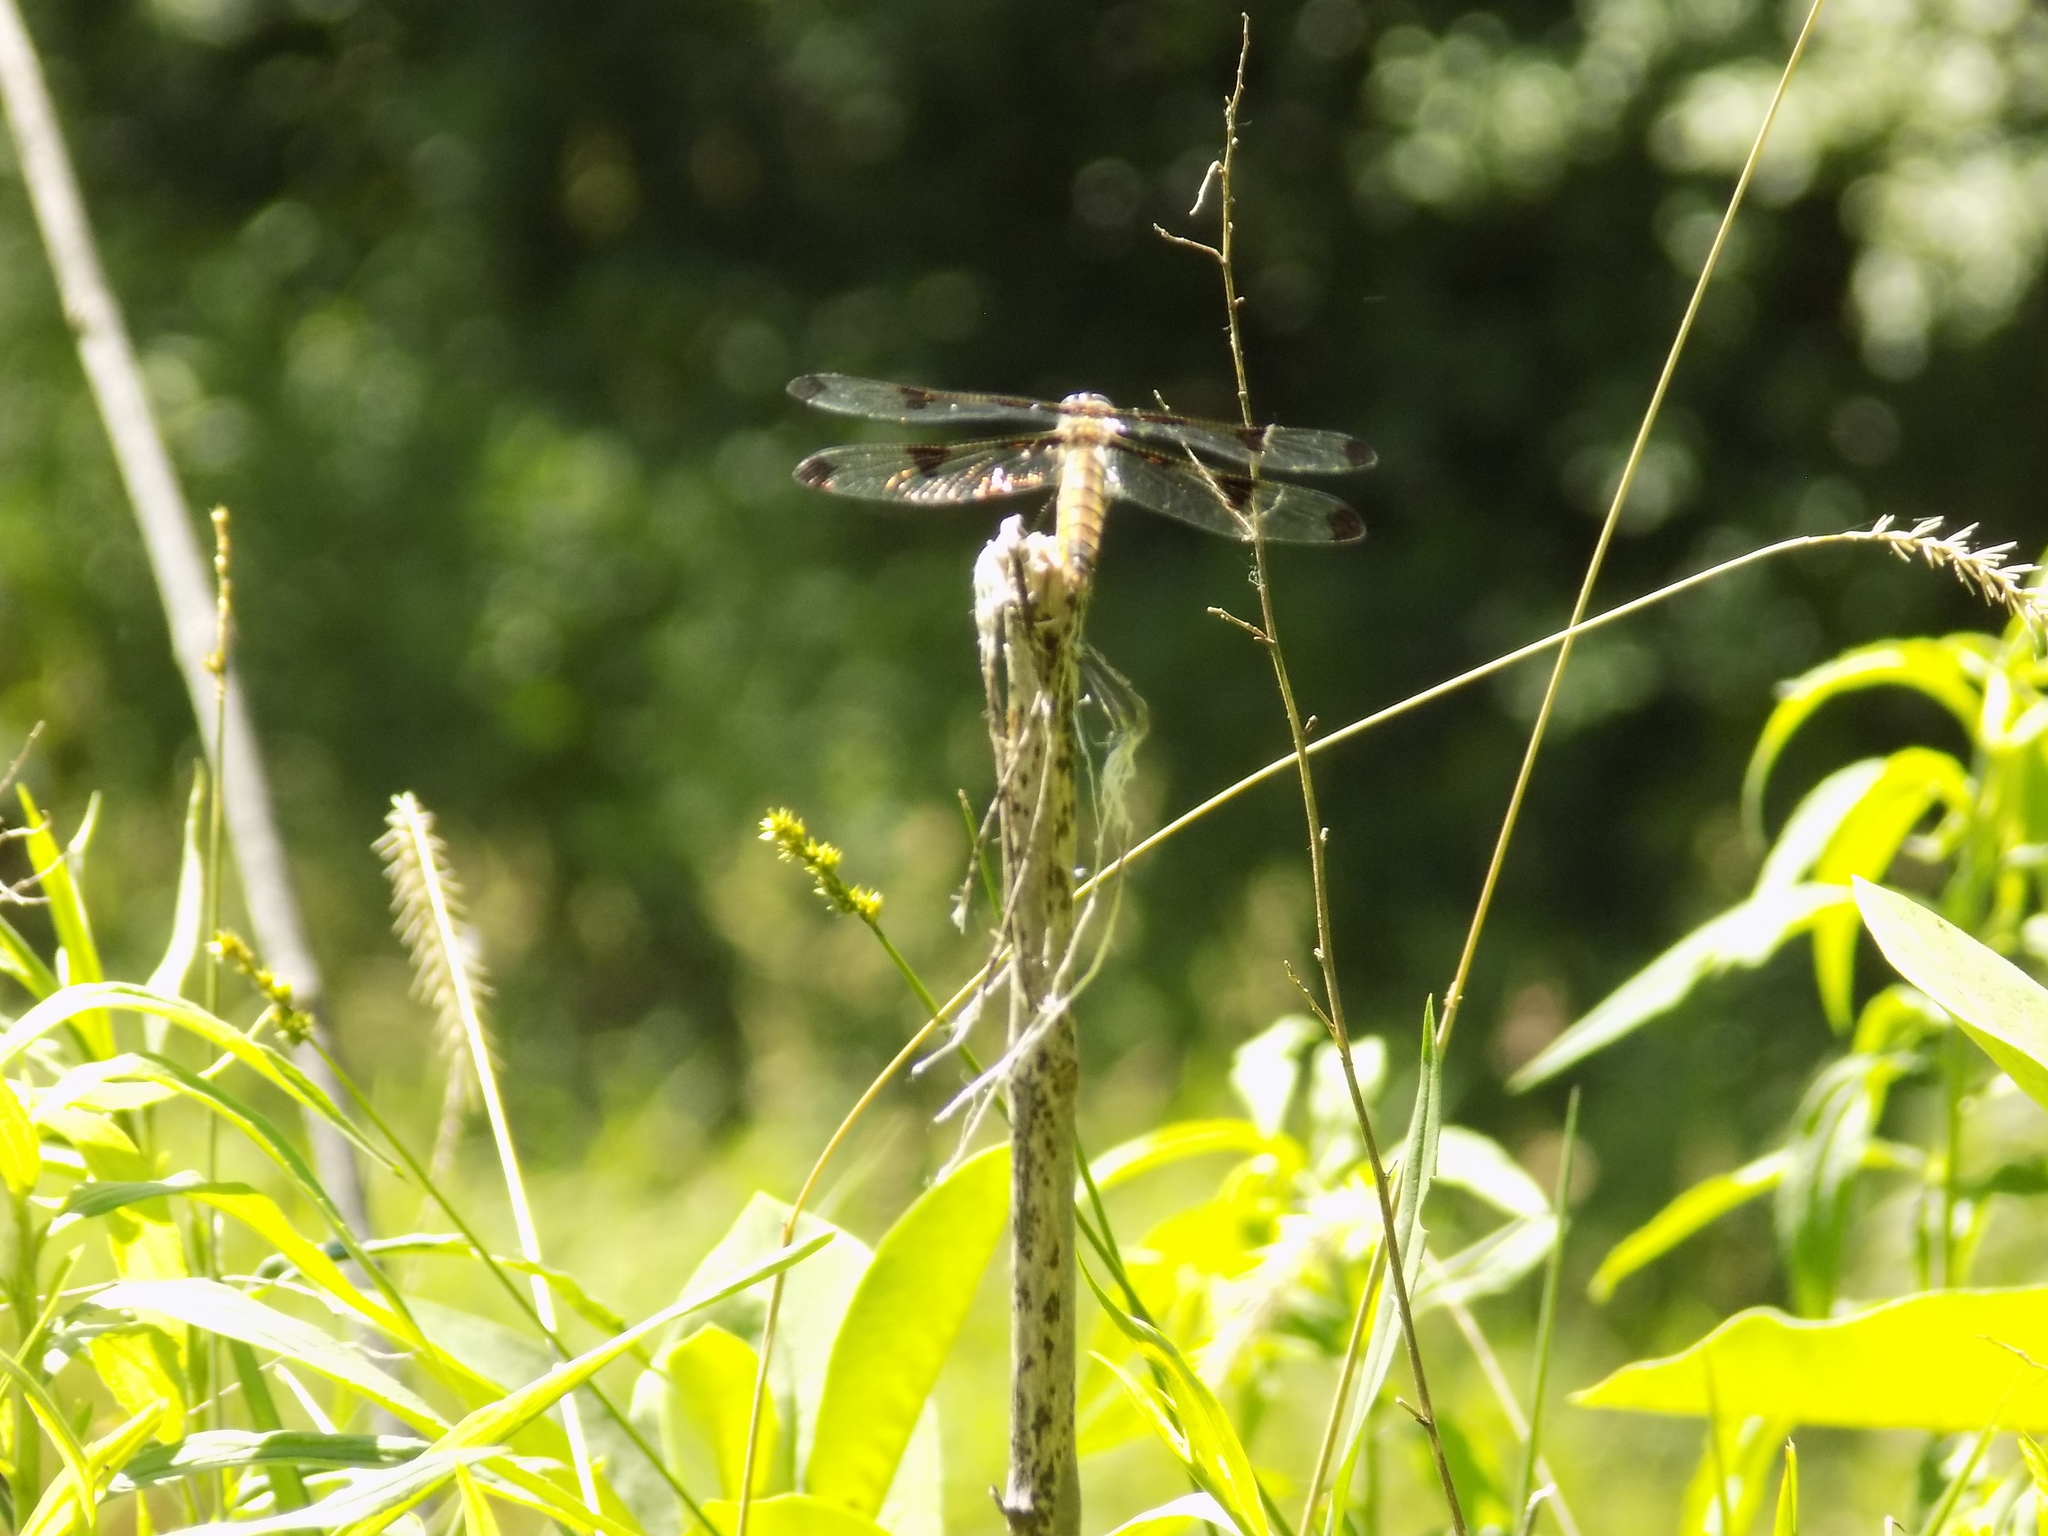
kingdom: Animalia
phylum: Arthropoda
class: Insecta
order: Odonata
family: Libellulidae
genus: Libellula
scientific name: Libellula pulchella
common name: Twelve-spotted skimmer
